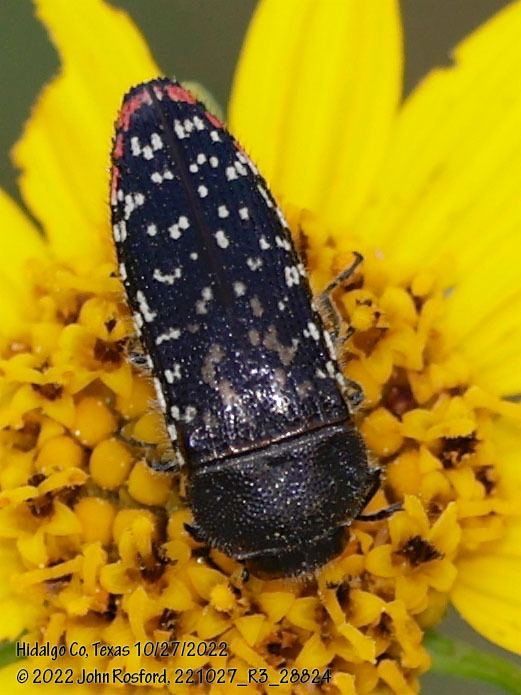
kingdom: Animalia
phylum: Arthropoda
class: Insecta
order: Coleoptera
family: Buprestidae
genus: Acmaeodera
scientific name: Acmaeodera haemorrhoa
